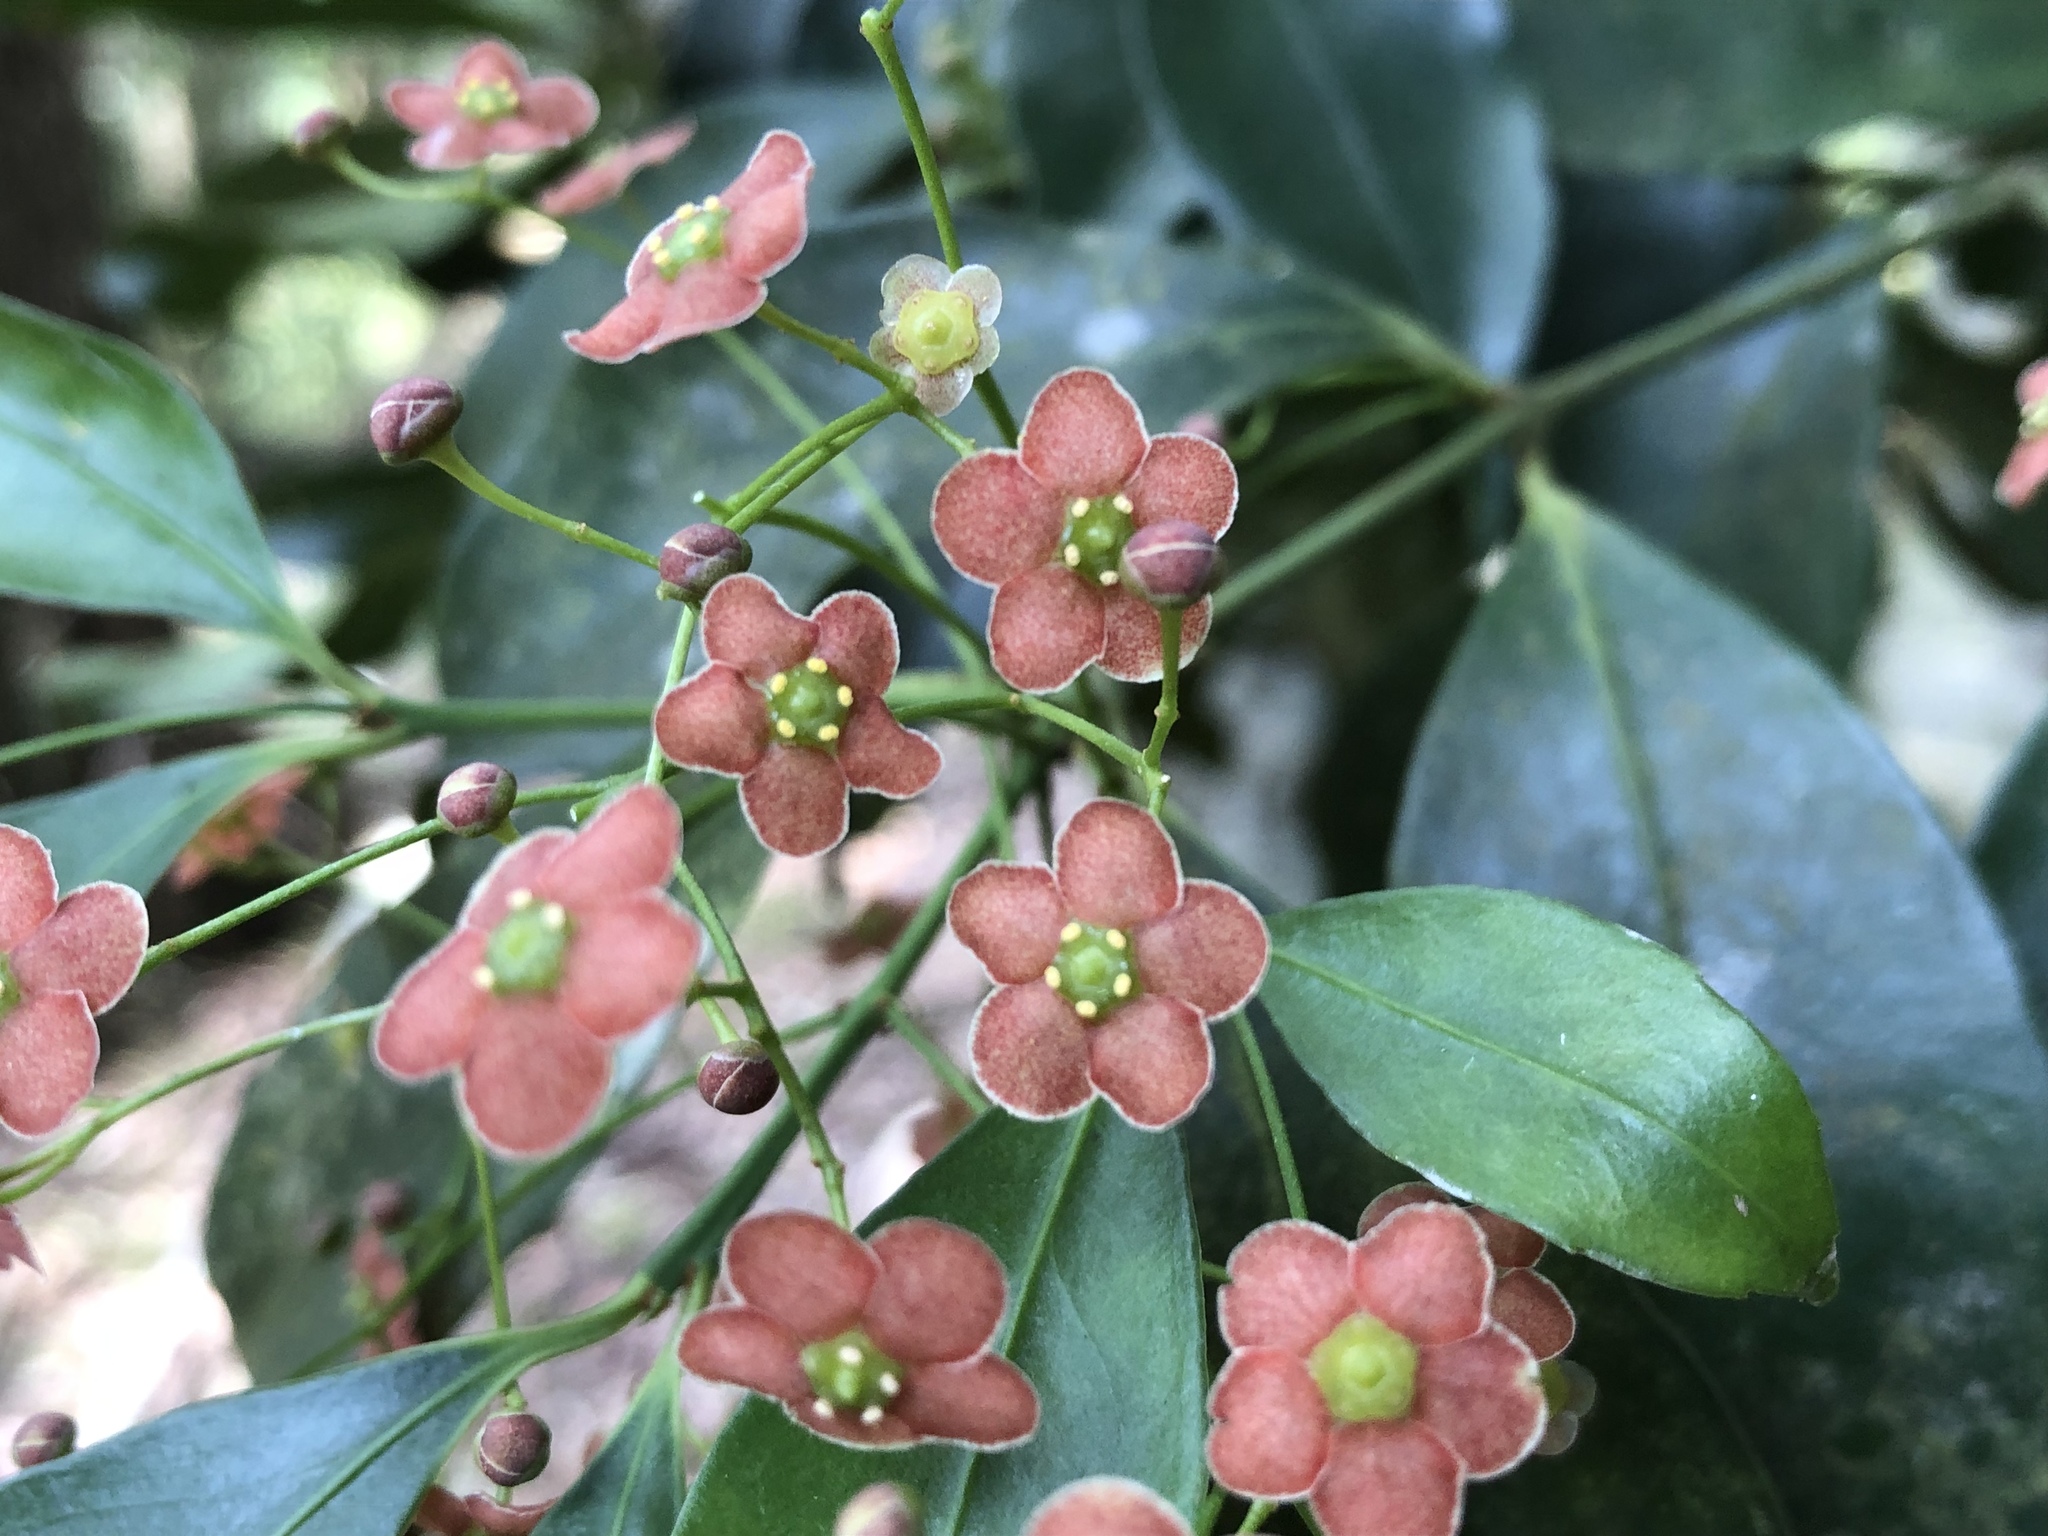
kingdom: Plantae
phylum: Tracheophyta
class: Magnoliopsida
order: Celastrales
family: Celastraceae
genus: Euonymus
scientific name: Euonymus laxiflorus
